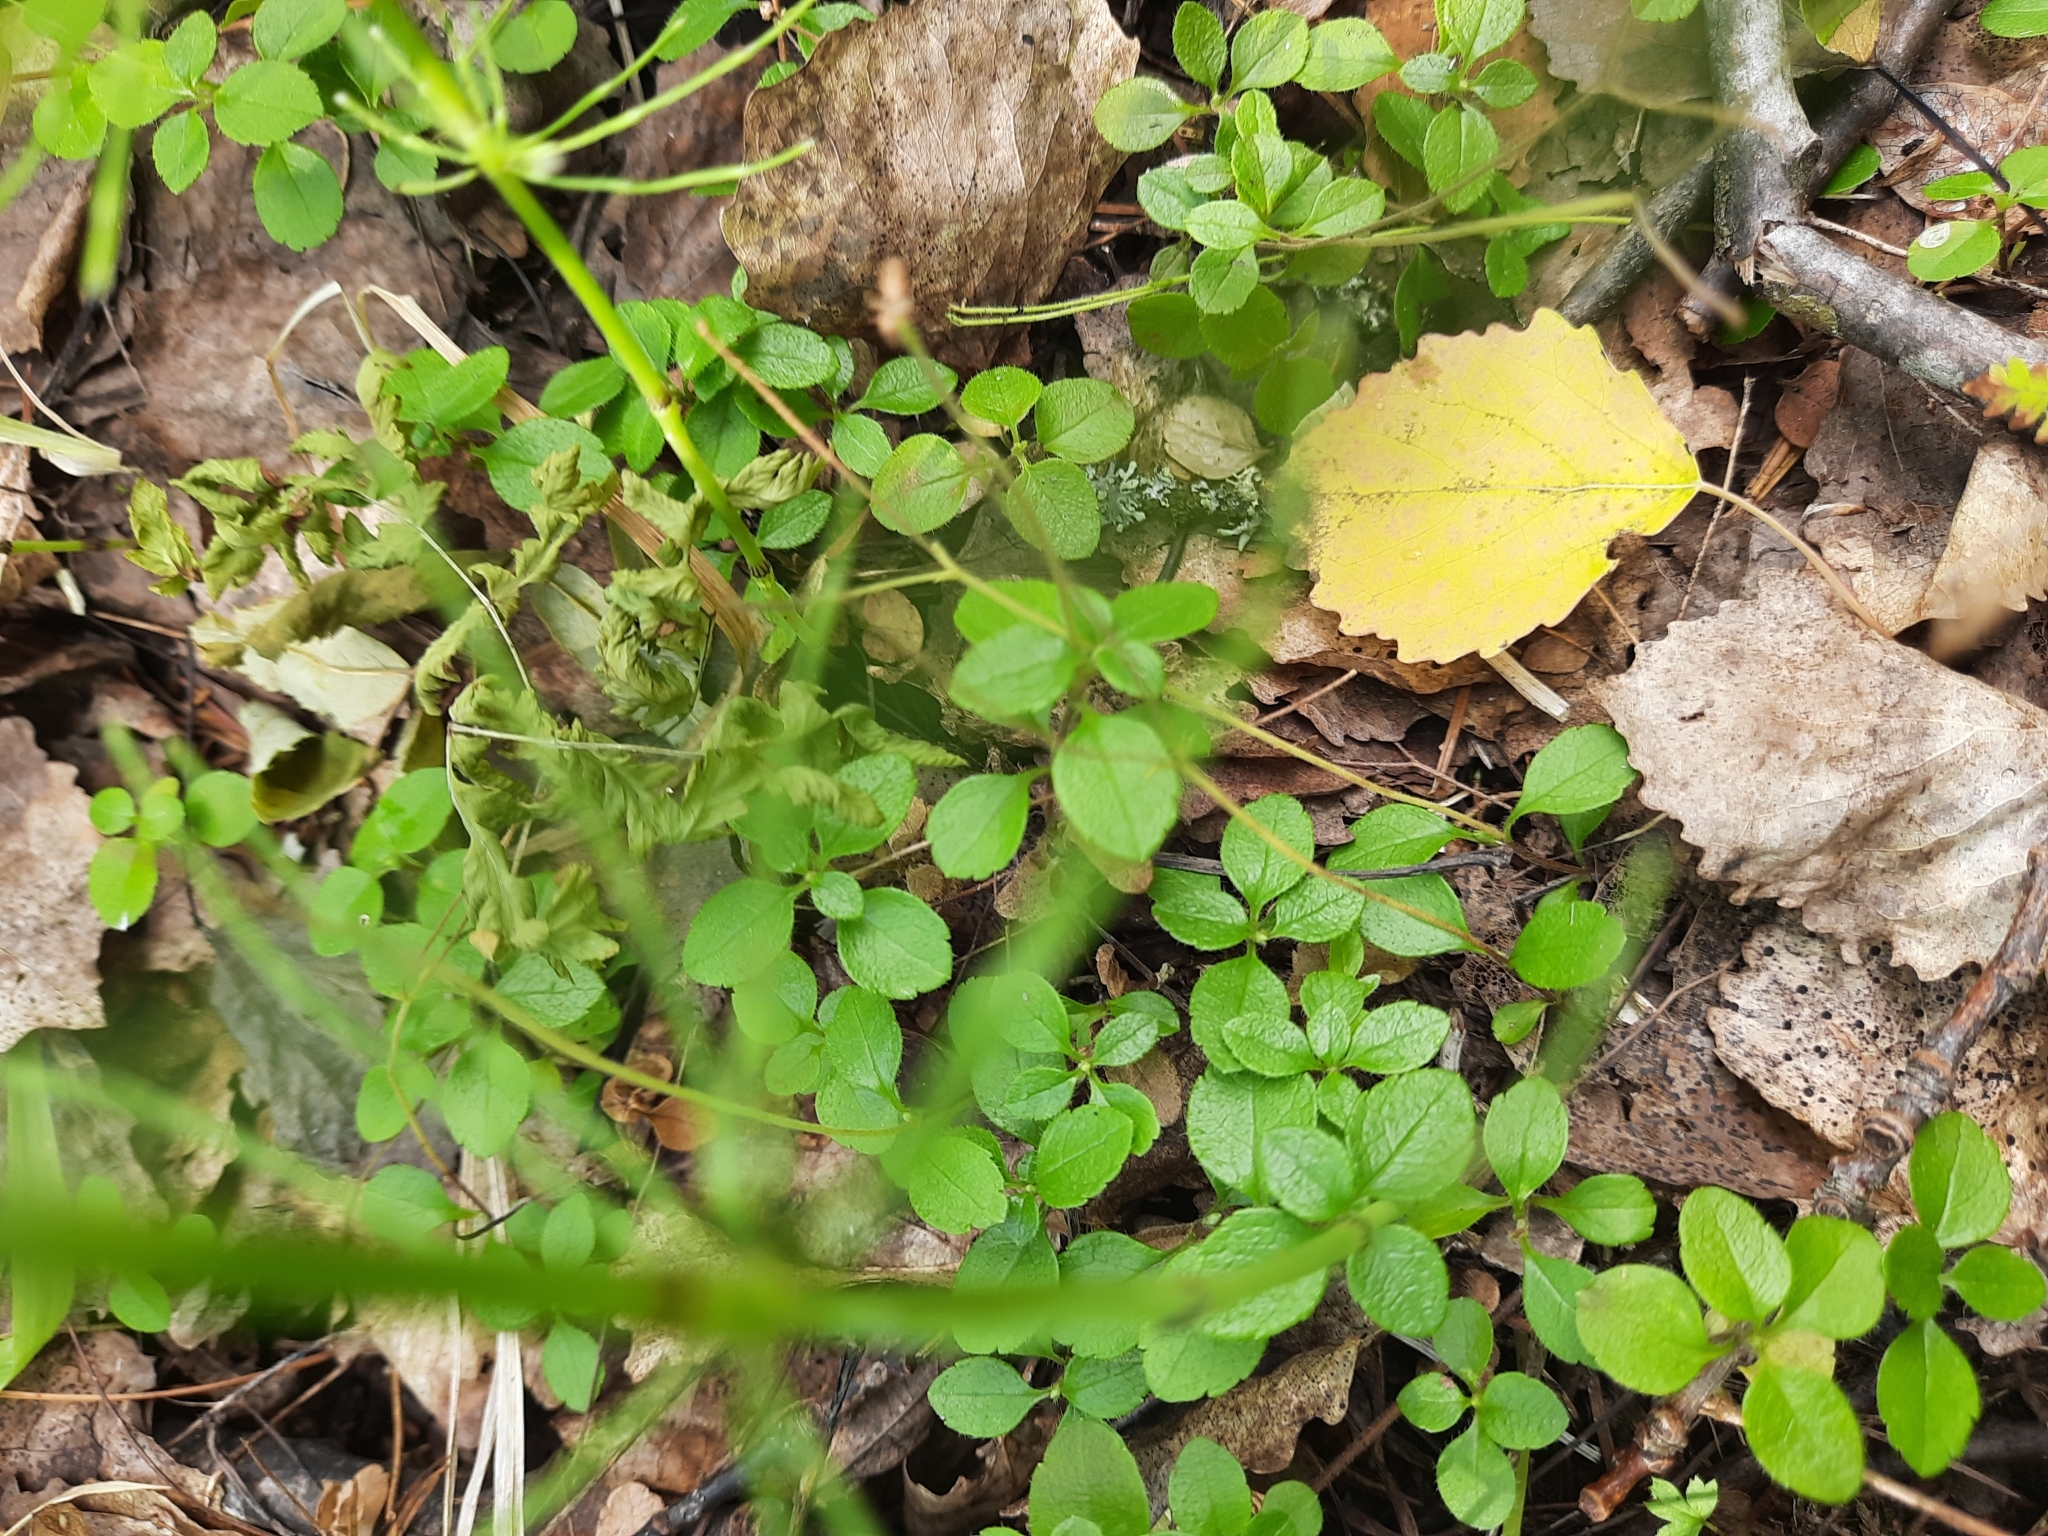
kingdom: Plantae
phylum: Tracheophyta
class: Magnoliopsida
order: Dipsacales
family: Caprifoliaceae
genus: Linnaea
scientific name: Linnaea borealis
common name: Twinflower
